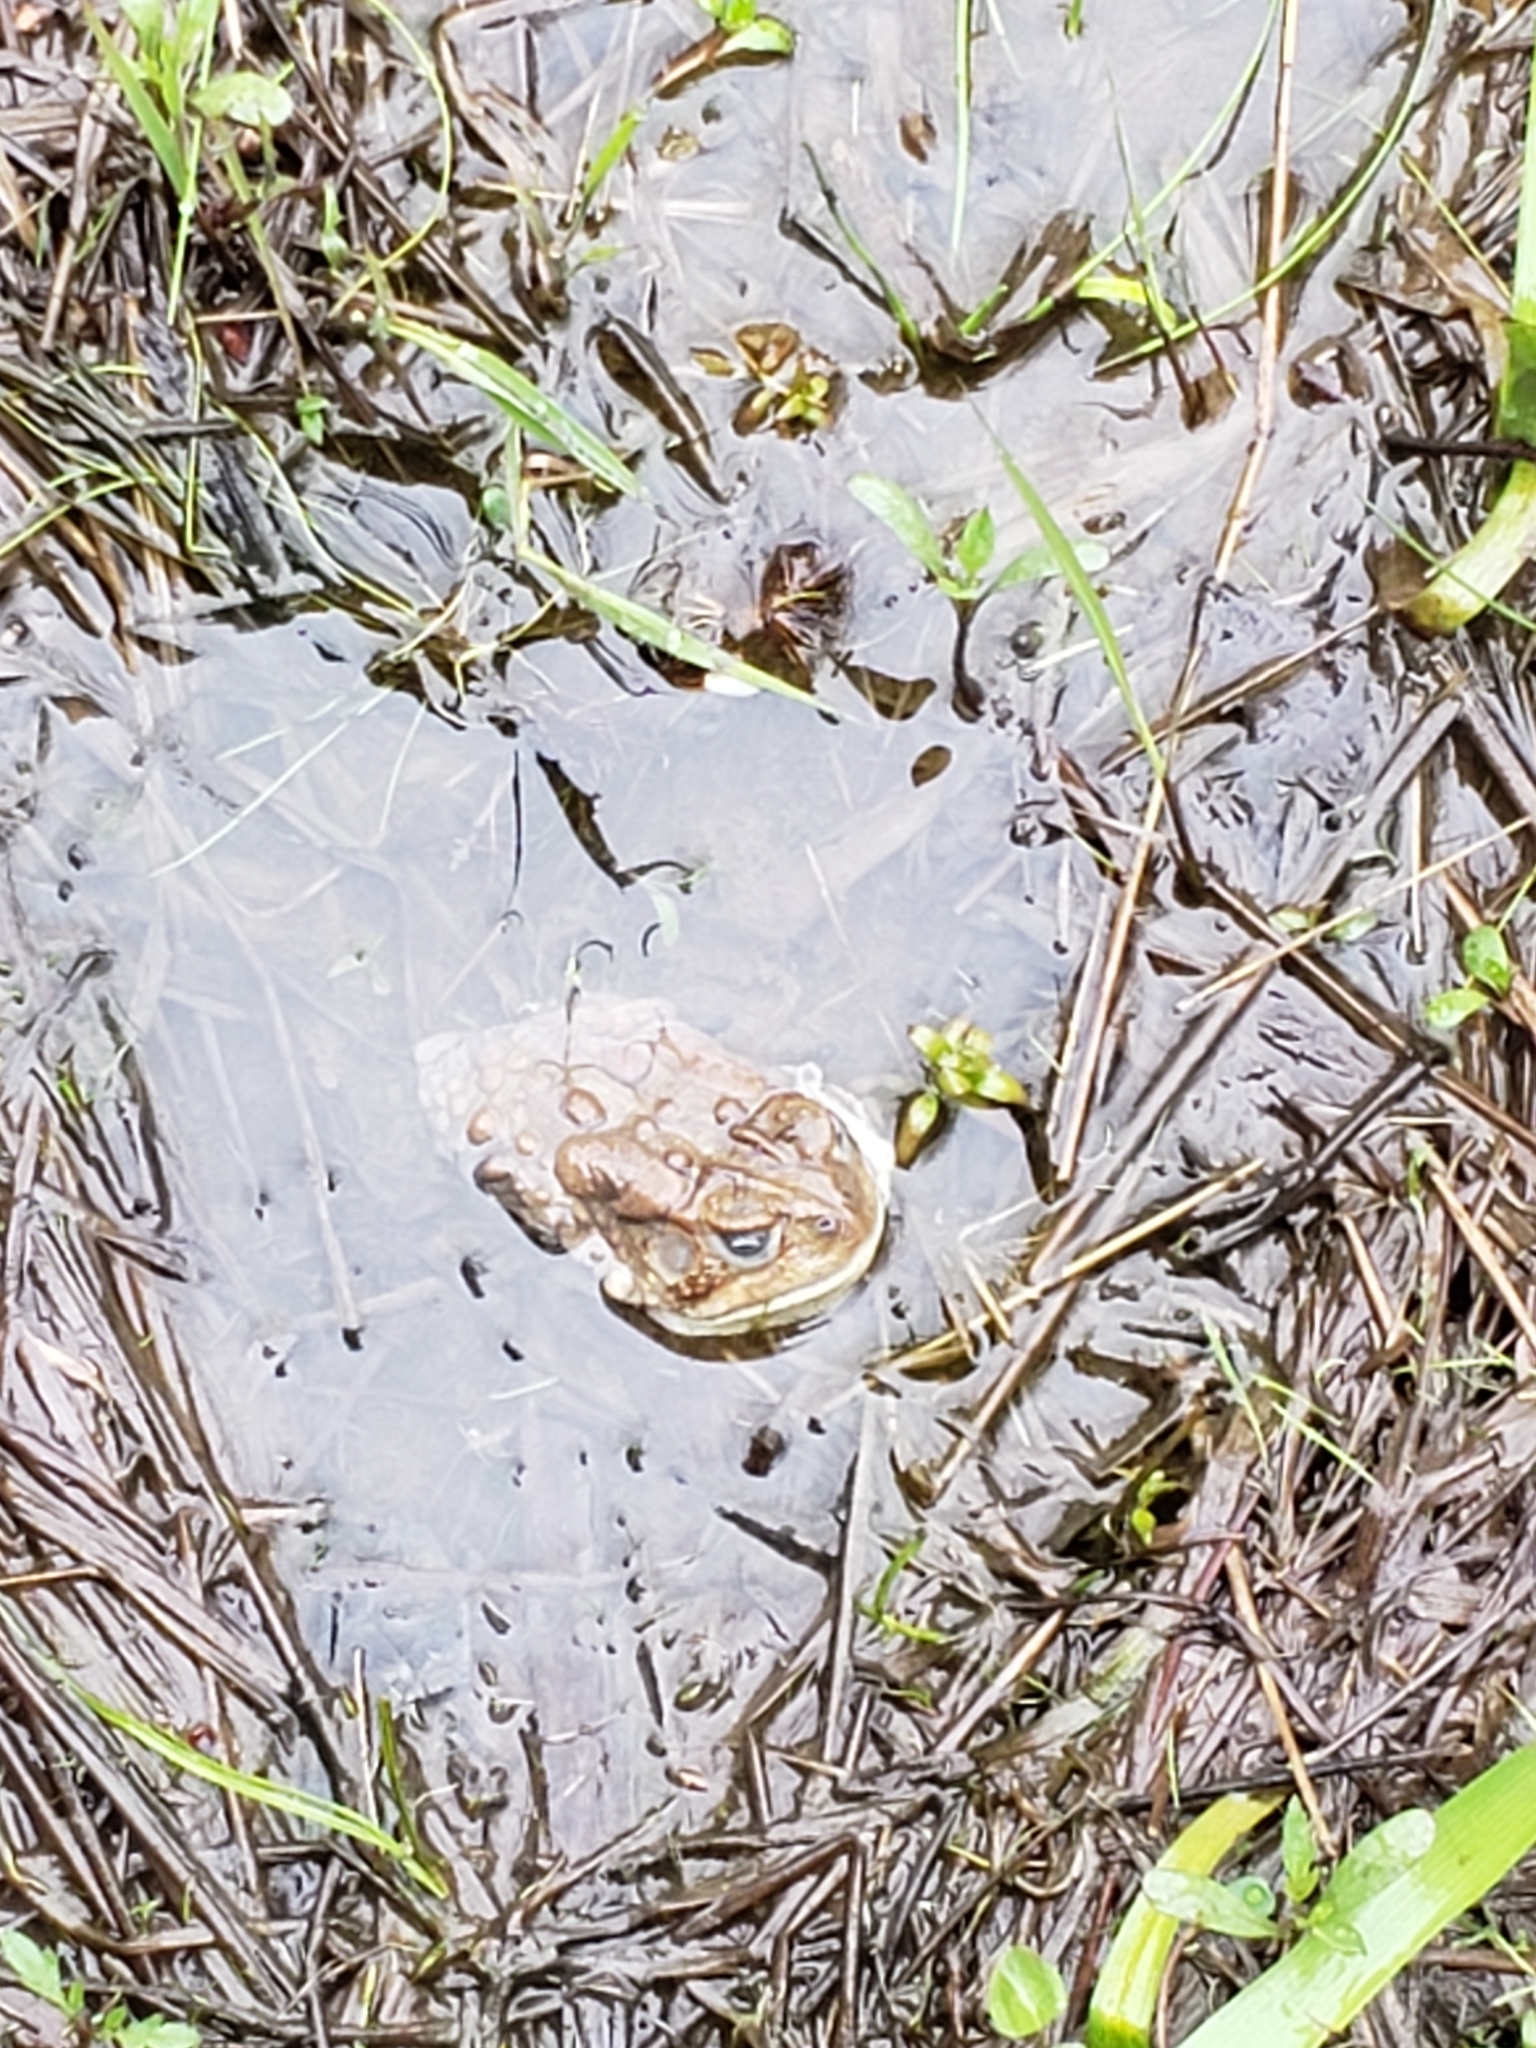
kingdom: Animalia
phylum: Chordata
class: Amphibia
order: Anura
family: Bufonidae
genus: Anaxyrus
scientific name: Anaxyrus americanus
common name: American toad
